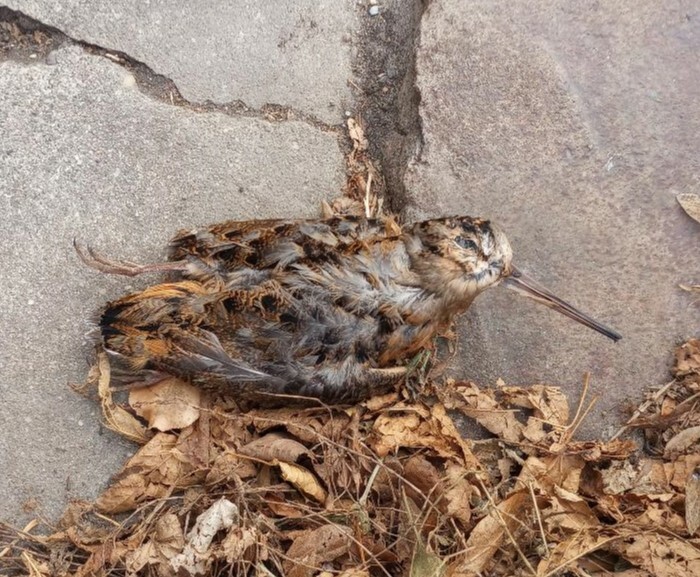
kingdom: Animalia
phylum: Chordata
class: Aves
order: Charadriiformes
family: Scolopacidae
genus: Scolopax
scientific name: Scolopax minor
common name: American woodcock
